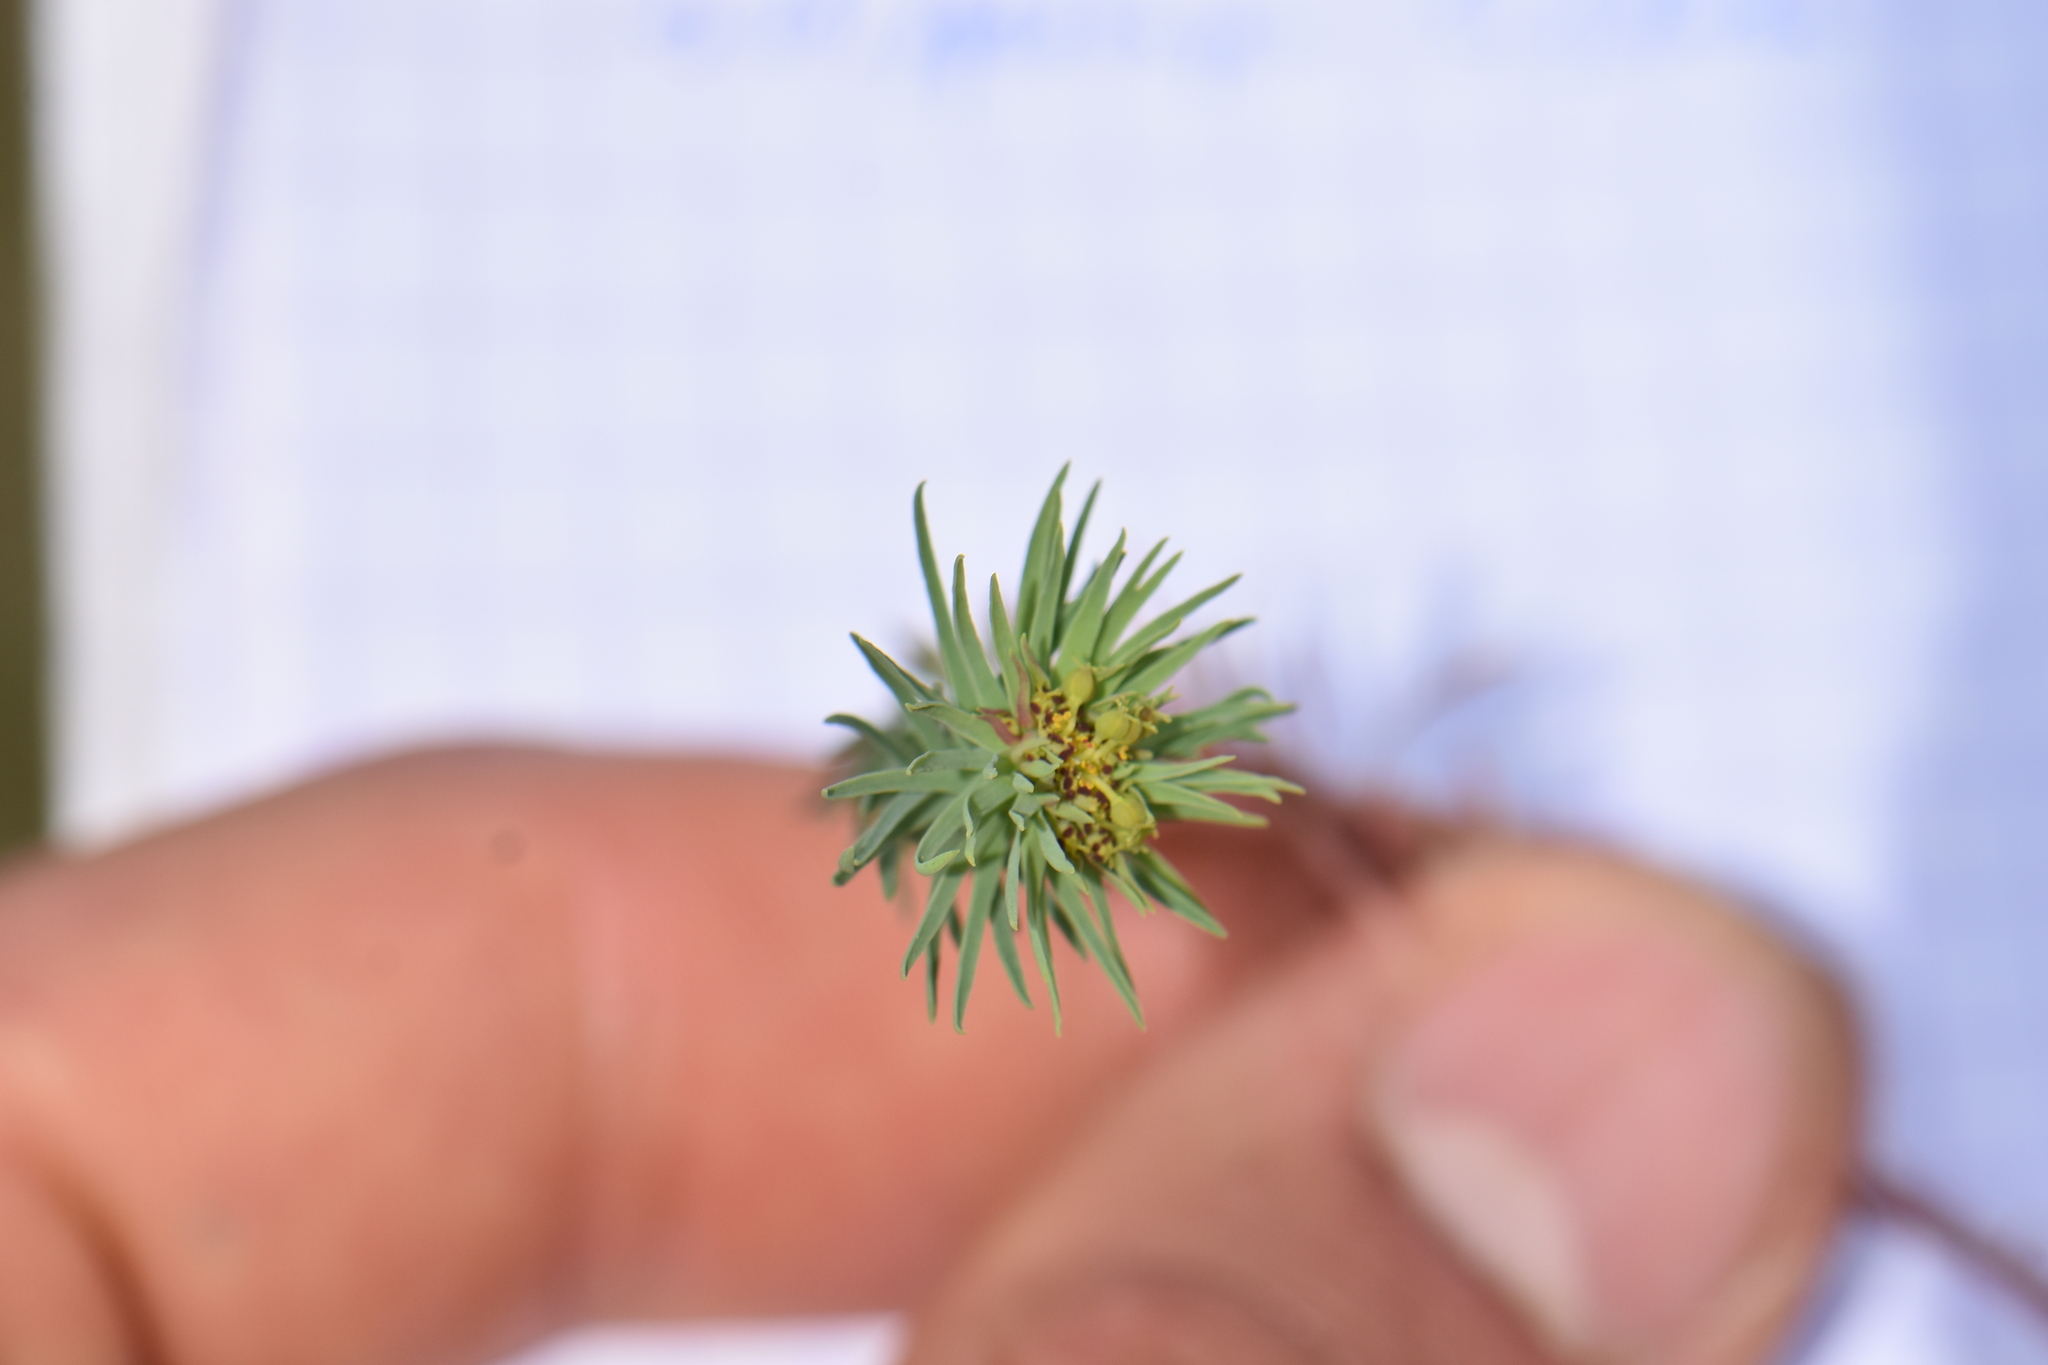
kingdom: Plantae
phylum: Tracheophyta
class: Magnoliopsida
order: Malpighiales
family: Euphorbiaceae
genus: Euphorbia
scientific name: Euphorbia exigua
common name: Dwarf spurge
